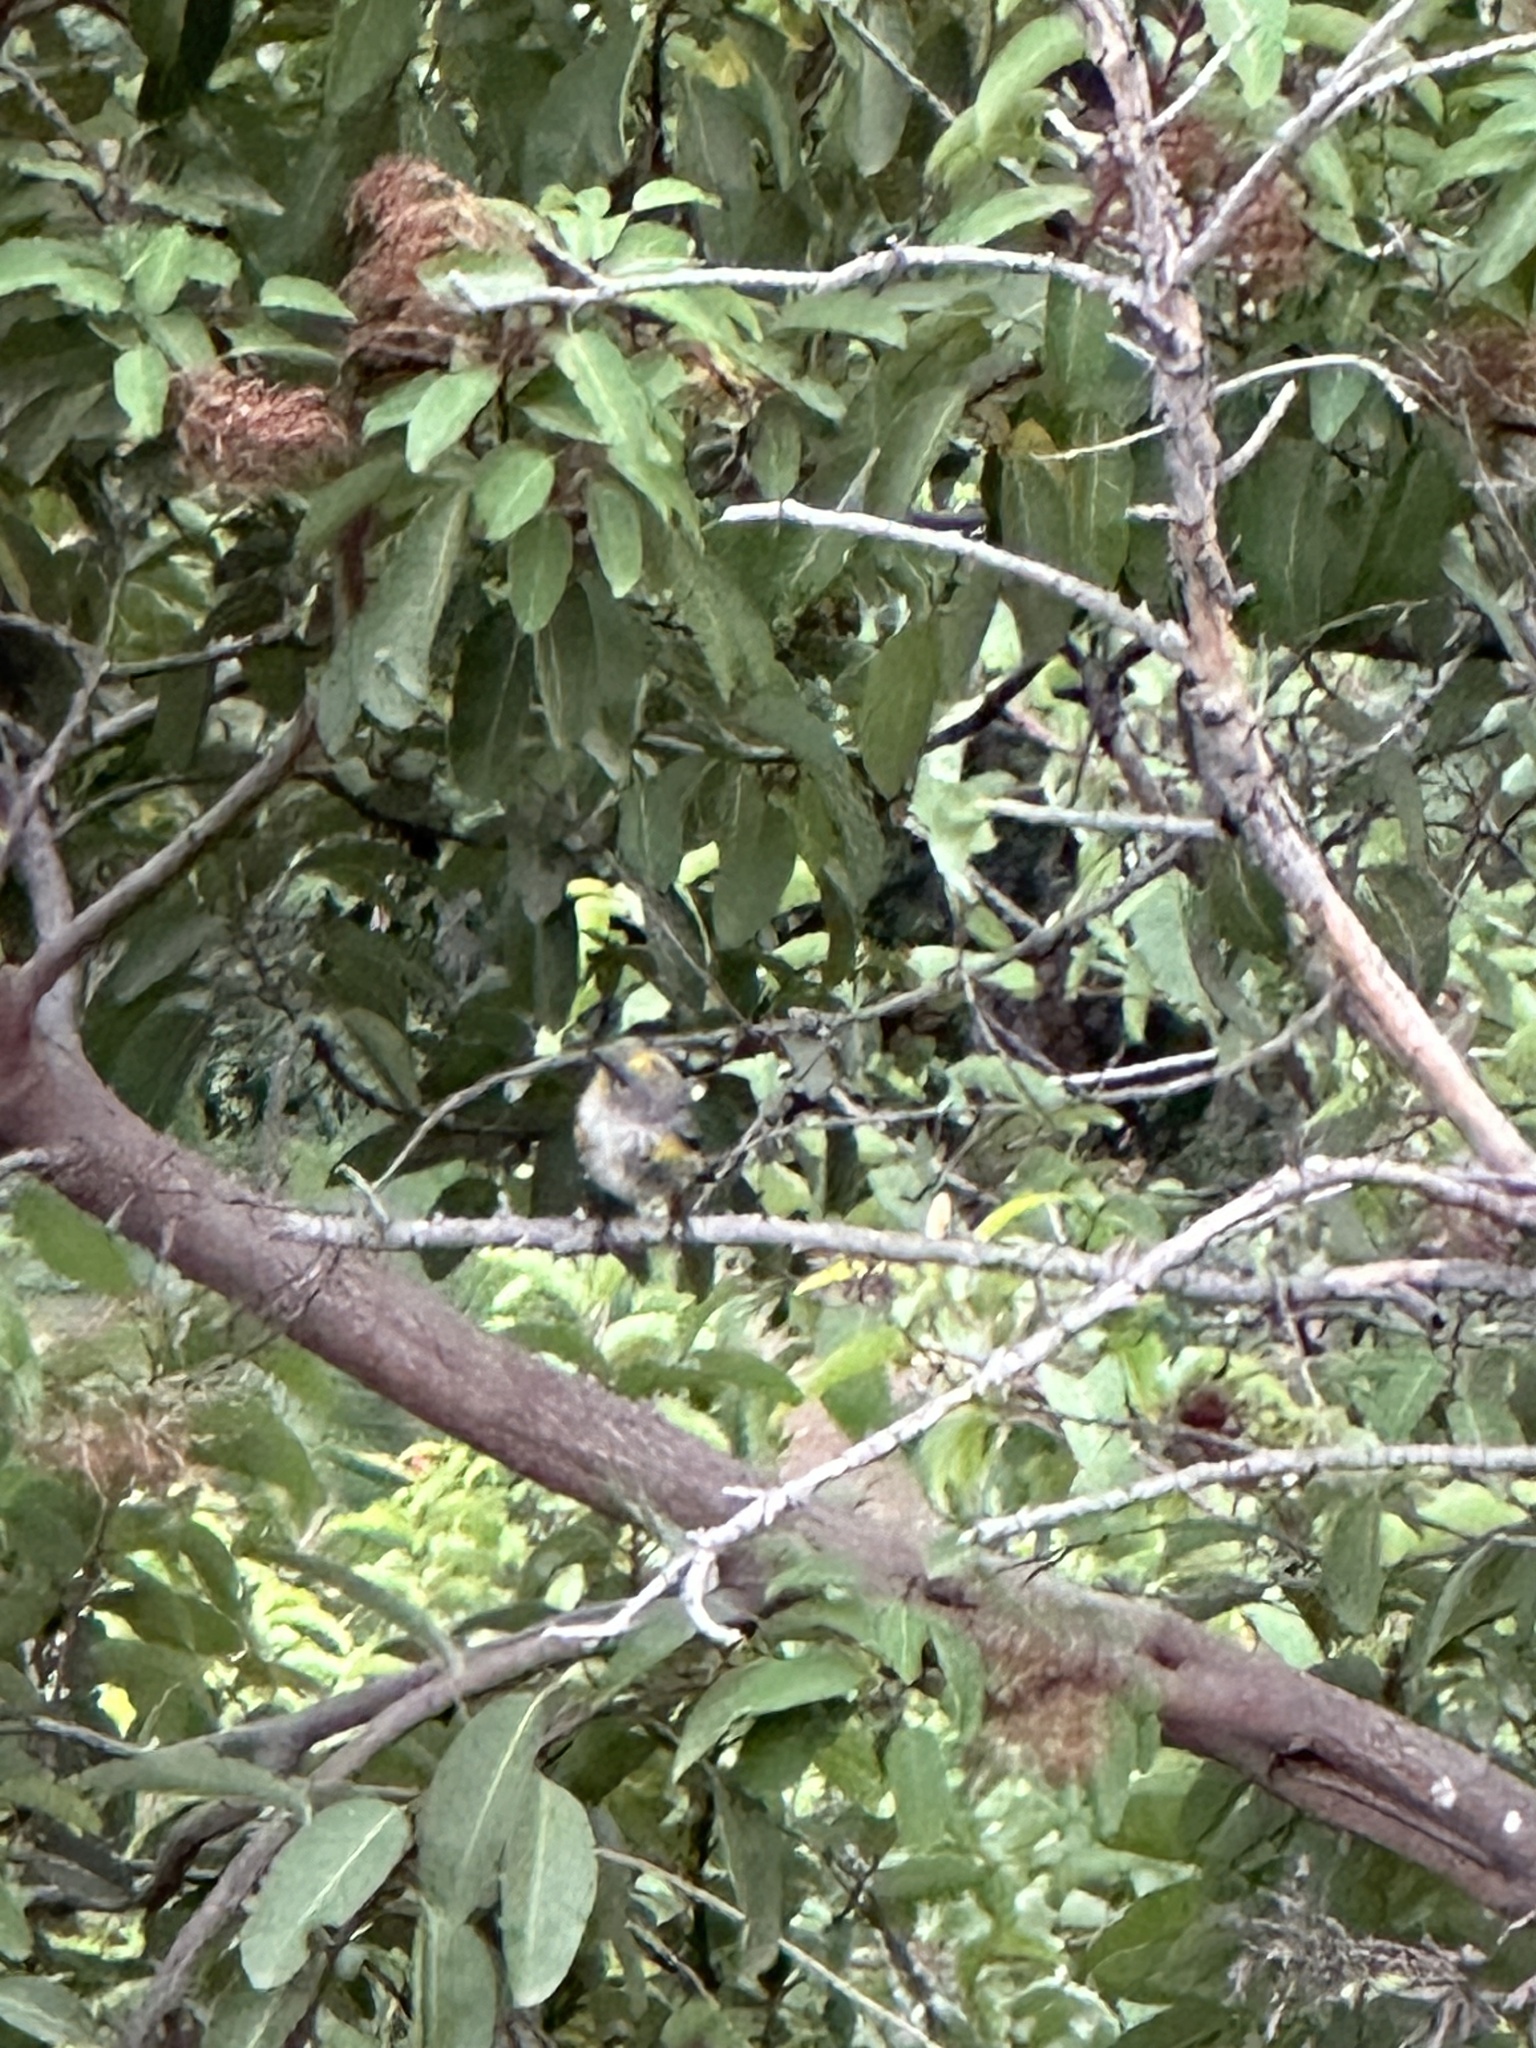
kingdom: Animalia
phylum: Chordata
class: Aves
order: Passeriformes
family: Parulidae
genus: Setophaga
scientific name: Setophaga coronata
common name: Myrtle warbler
